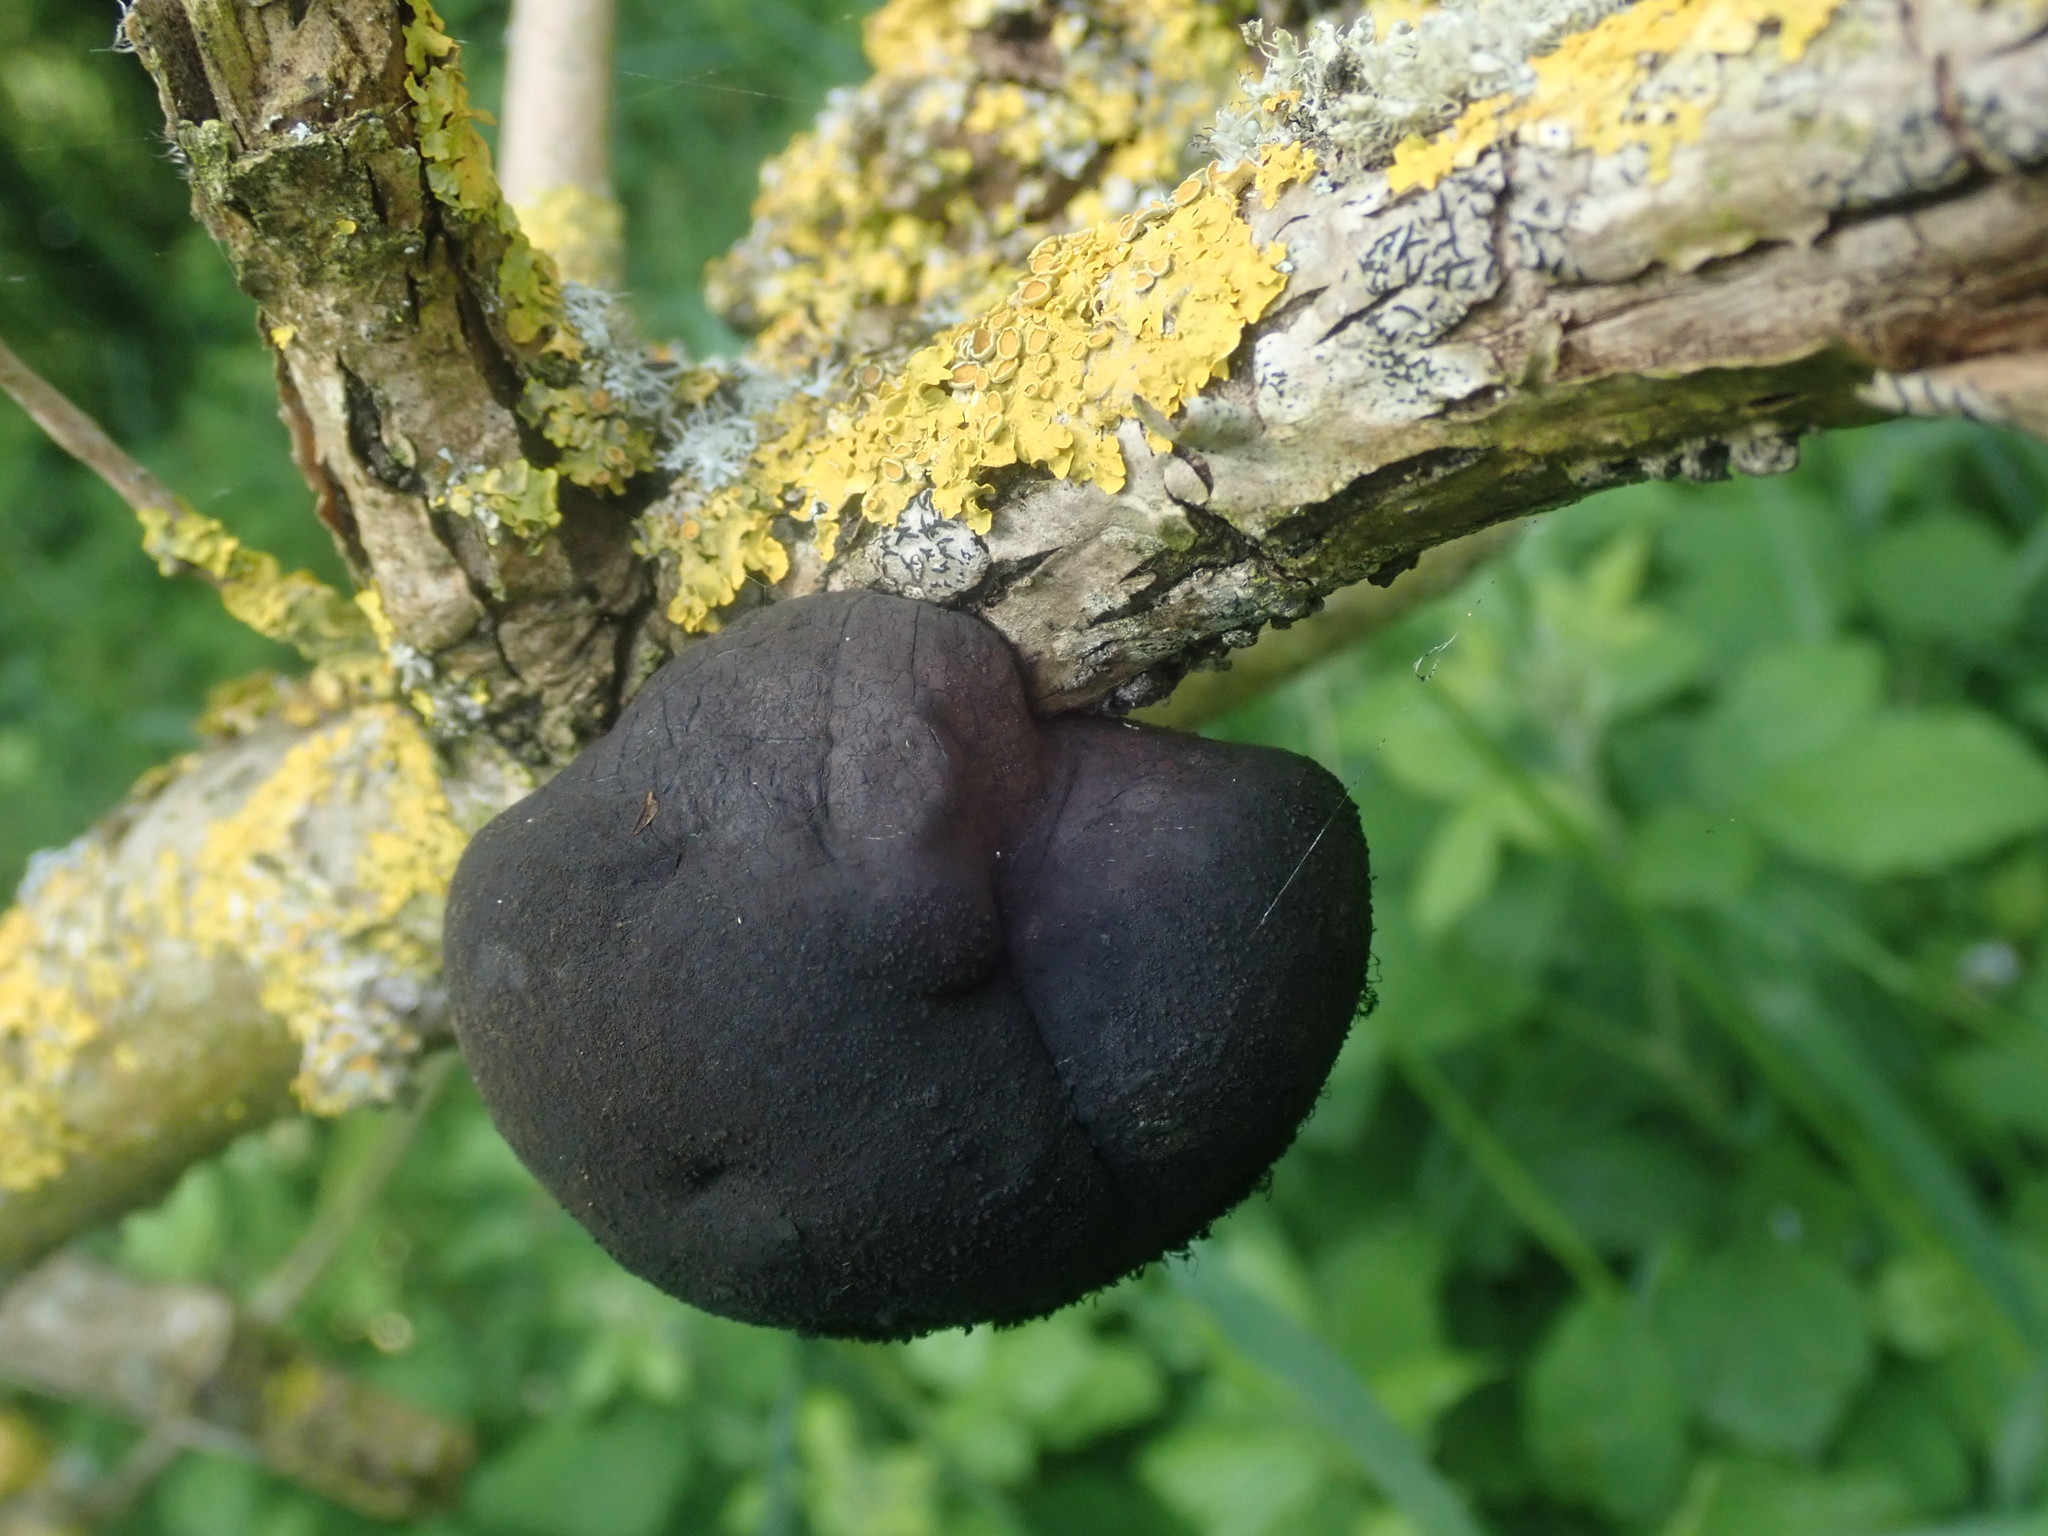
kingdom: Fungi
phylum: Ascomycota
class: Sordariomycetes
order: Xylariales
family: Hypoxylaceae
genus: Daldinia
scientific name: Daldinia concentrica
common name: Cramp balls
